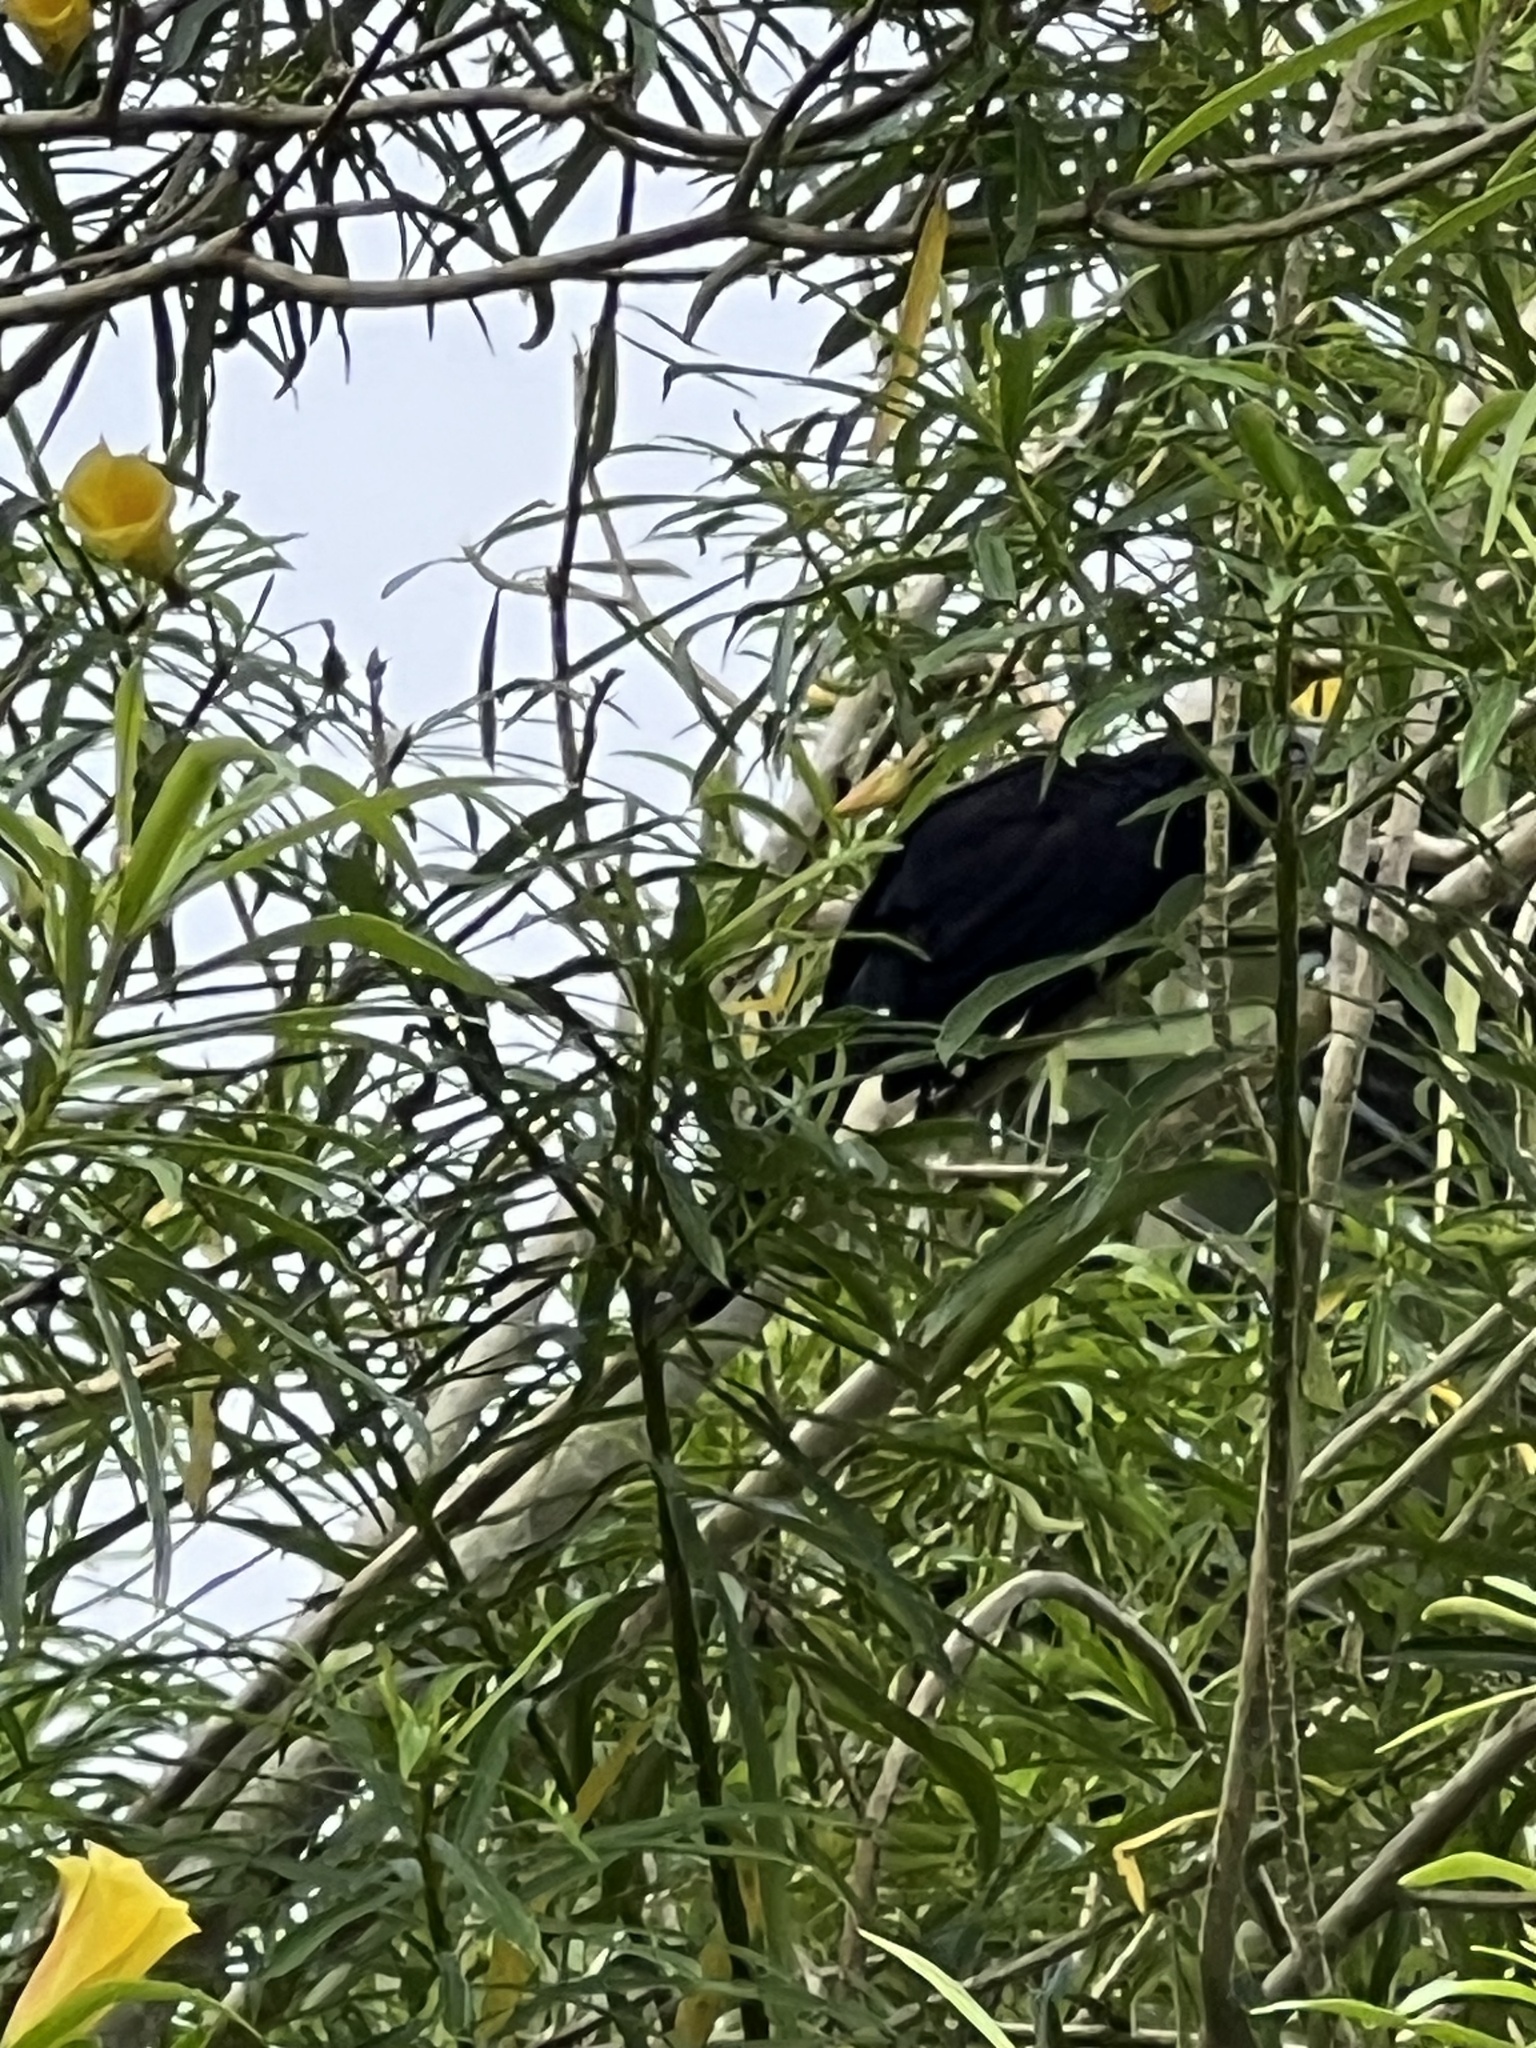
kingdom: Animalia
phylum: Chordata
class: Aves
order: Cuculiformes
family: Cuculidae
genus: Crotophaga
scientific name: Crotophaga sulcirostris
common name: Groove-billed ani
